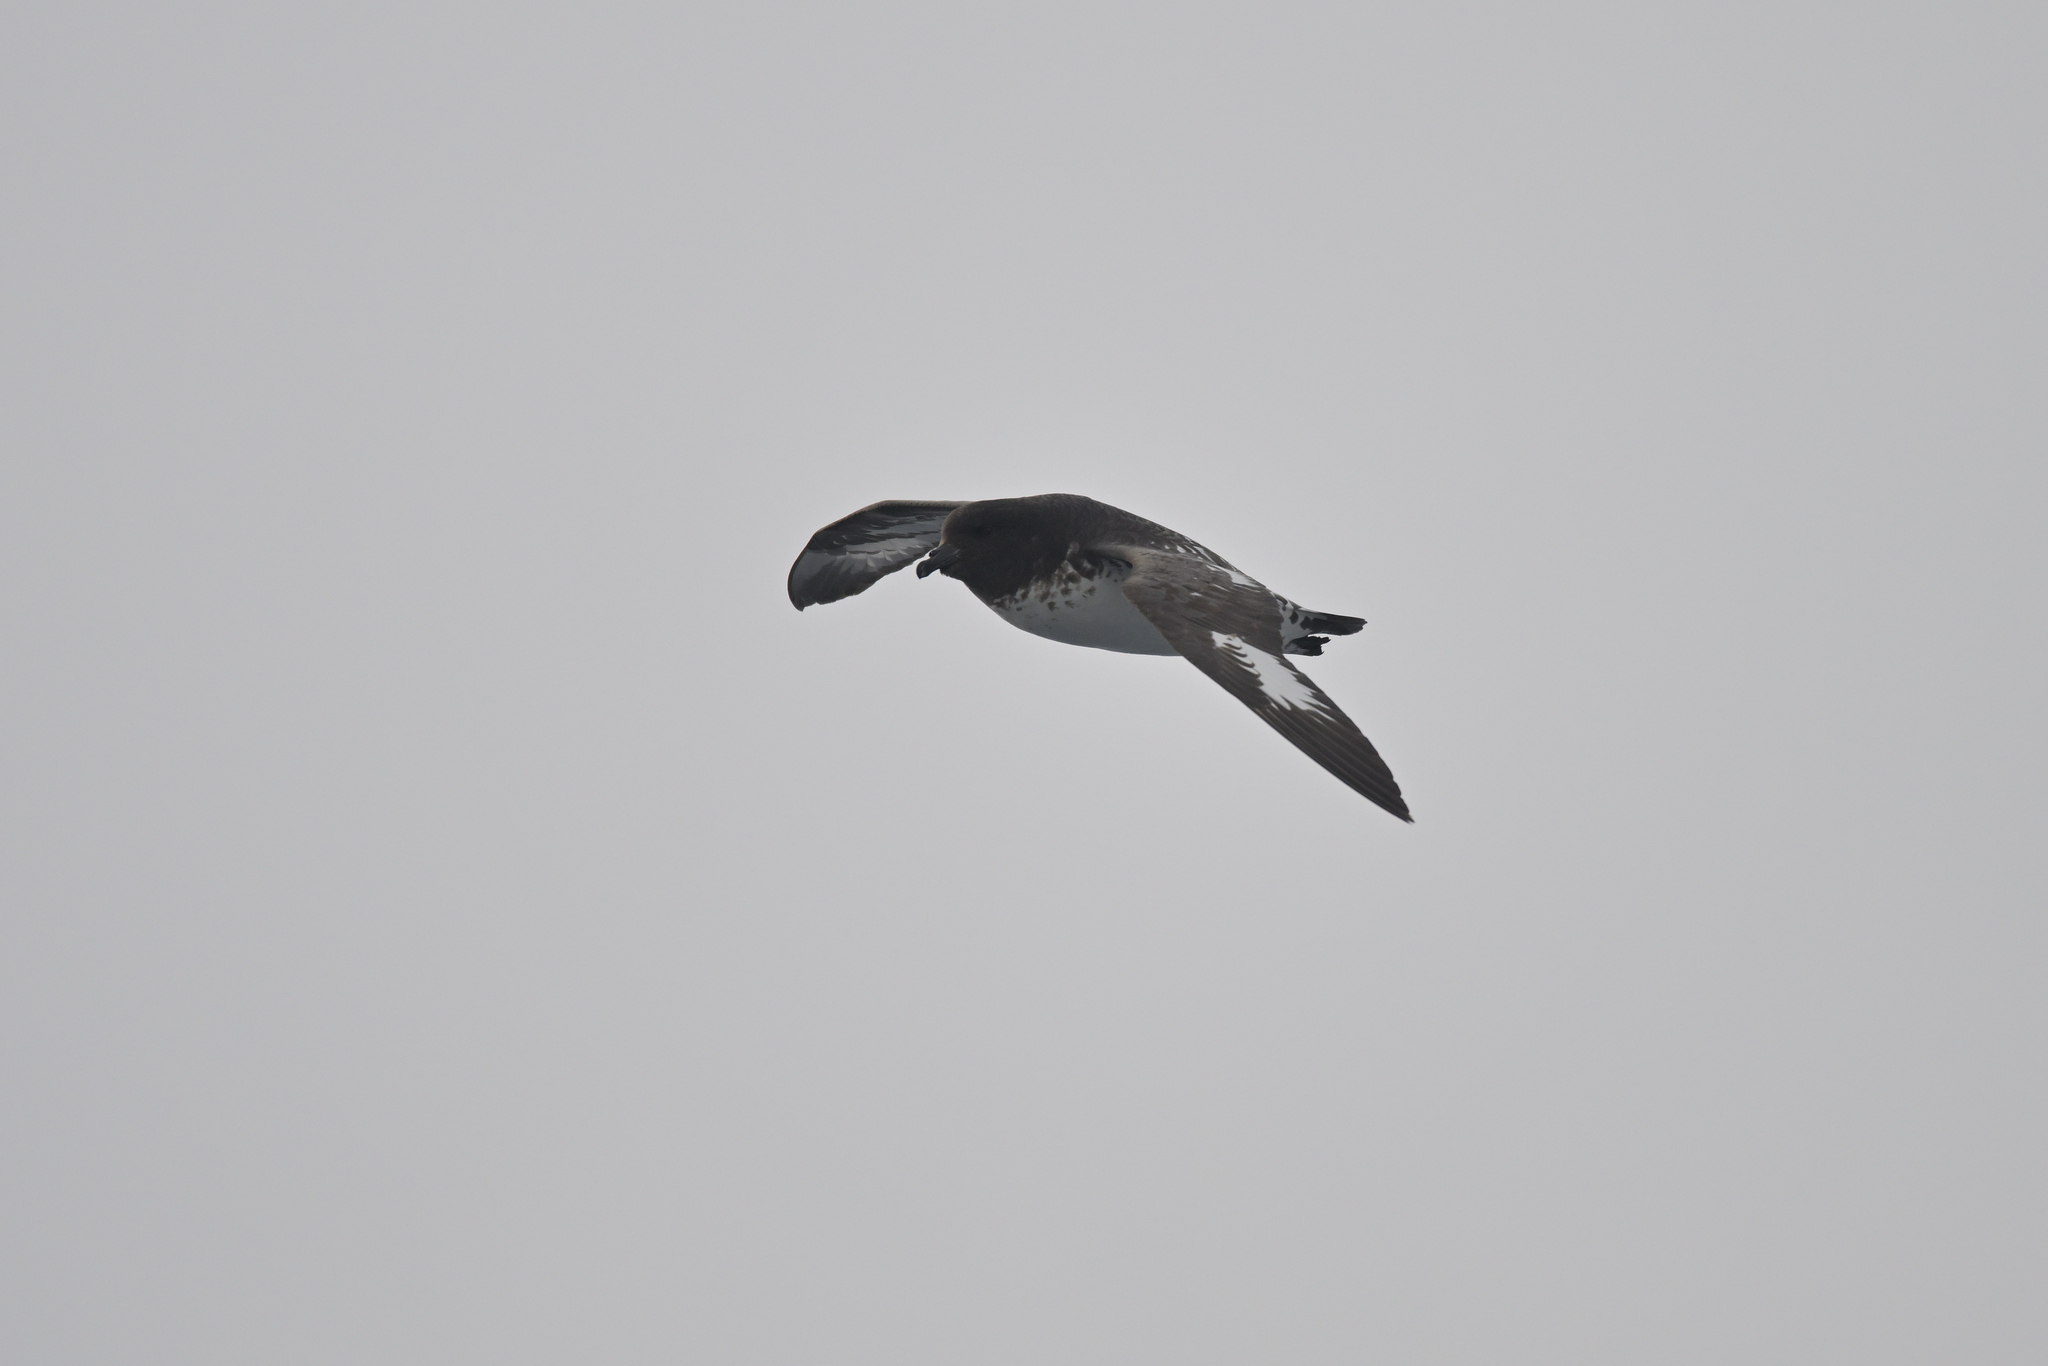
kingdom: Animalia
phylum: Chordata
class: Aves
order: Procellariiformes
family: Procellariidae
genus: Daption
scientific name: Daption capense
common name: Cape petrel
